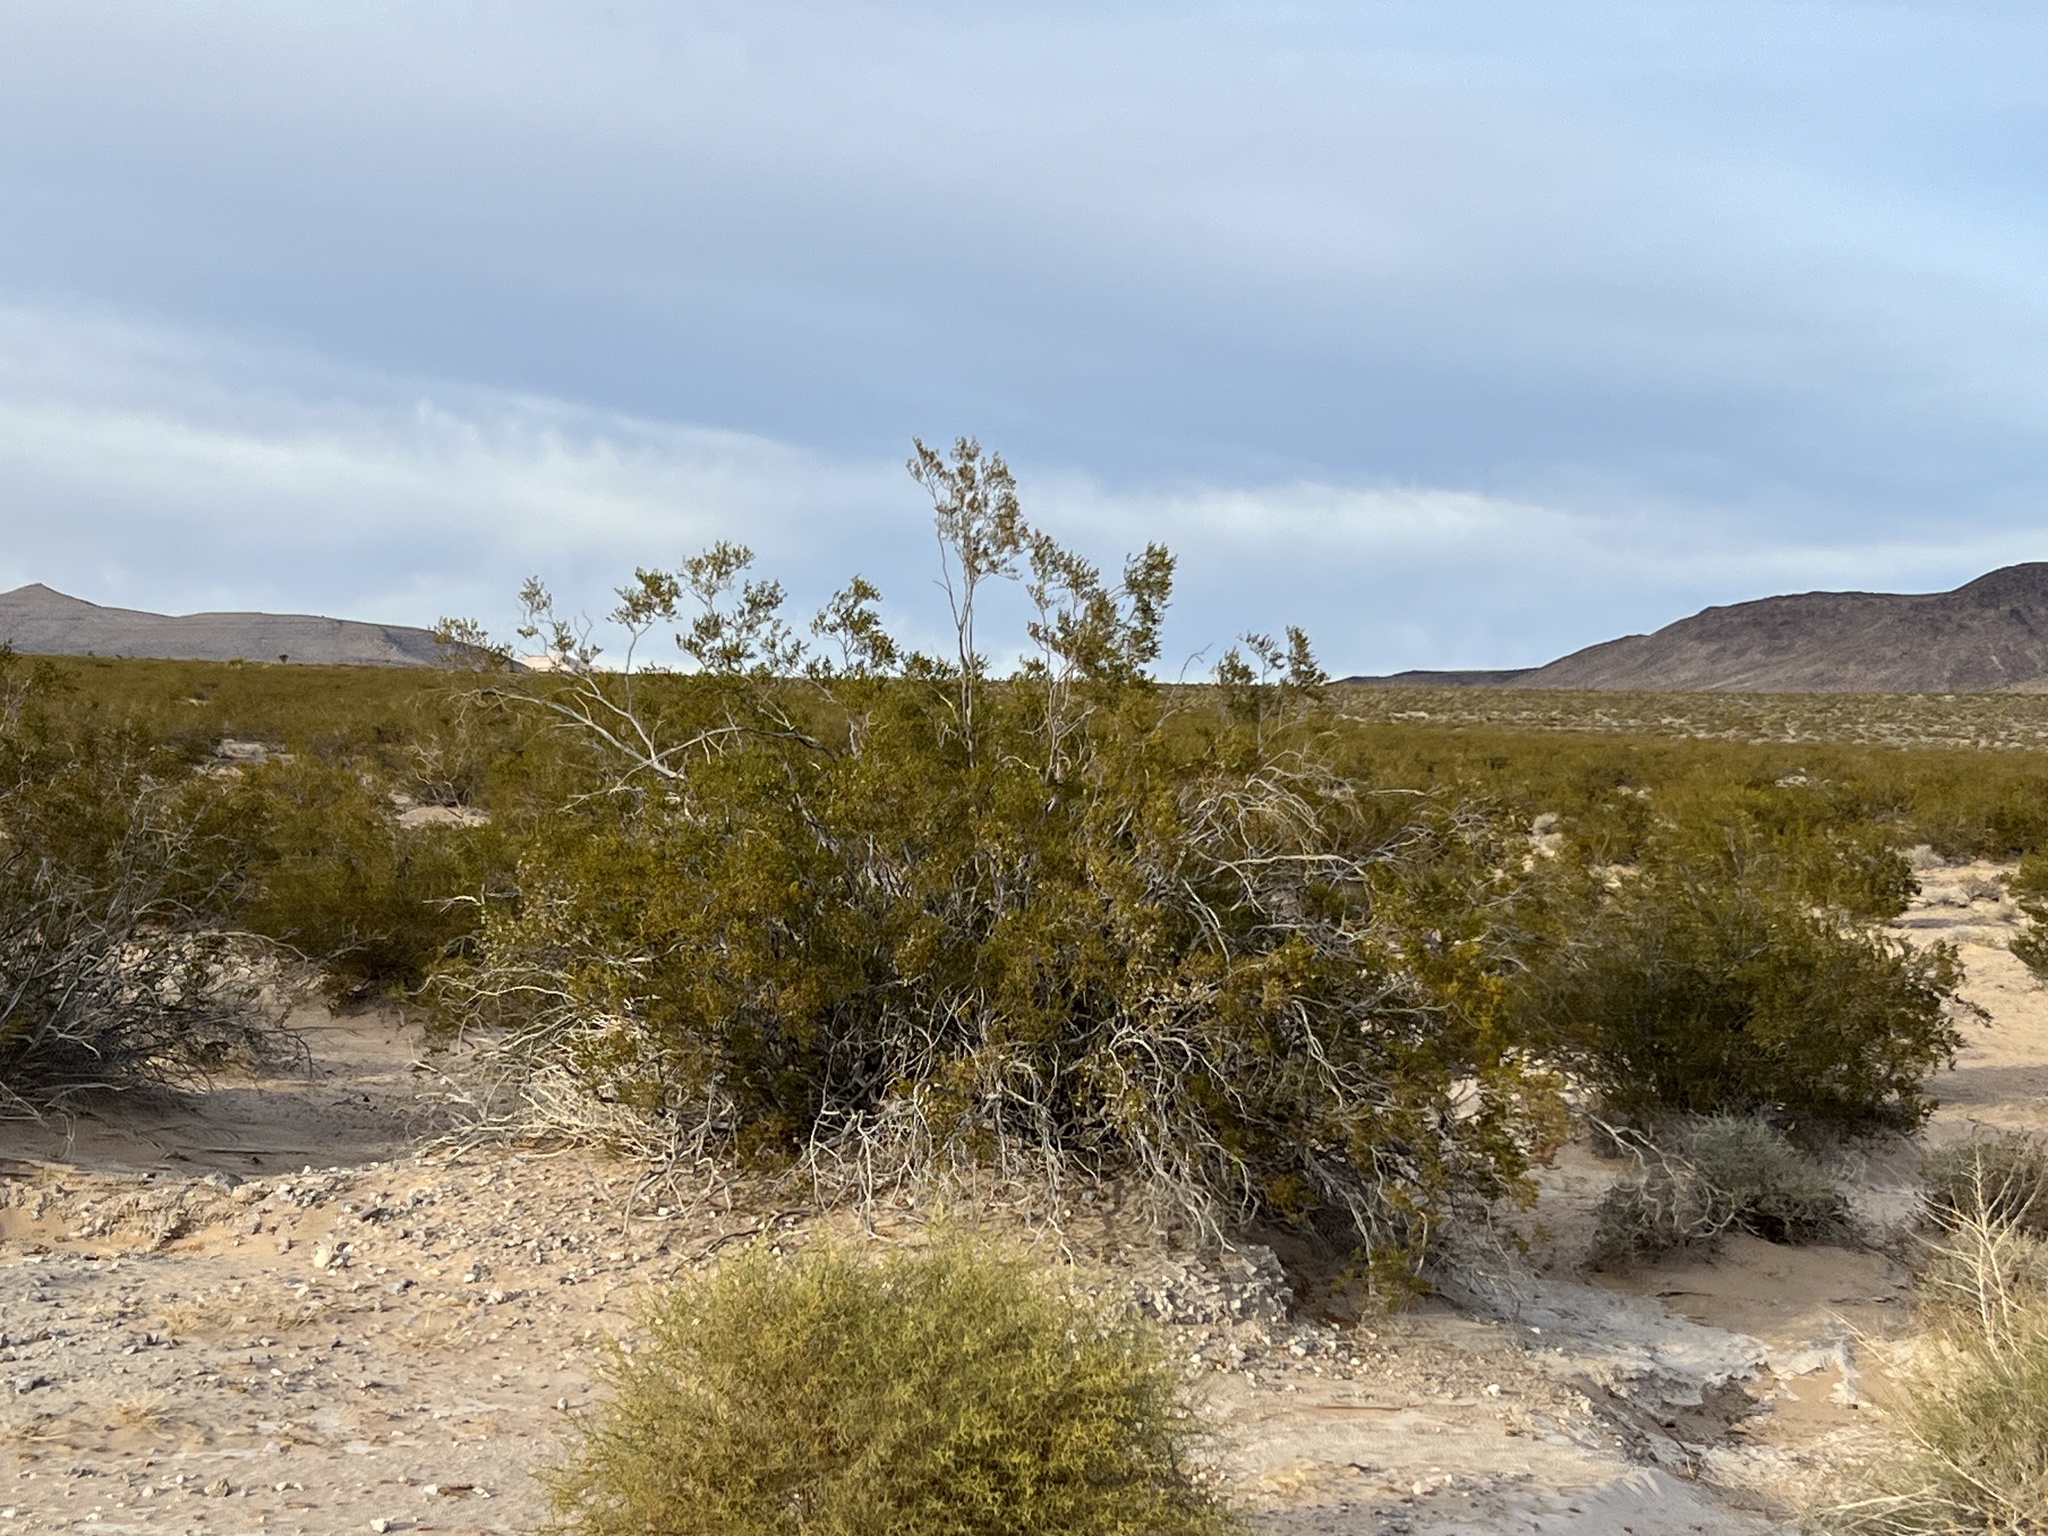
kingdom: Plantae
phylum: Tracheophyta
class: Magnoliopsida
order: Zygophyllales
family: Zygophyllaceae
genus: Larrea
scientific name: Larrea tridentata
